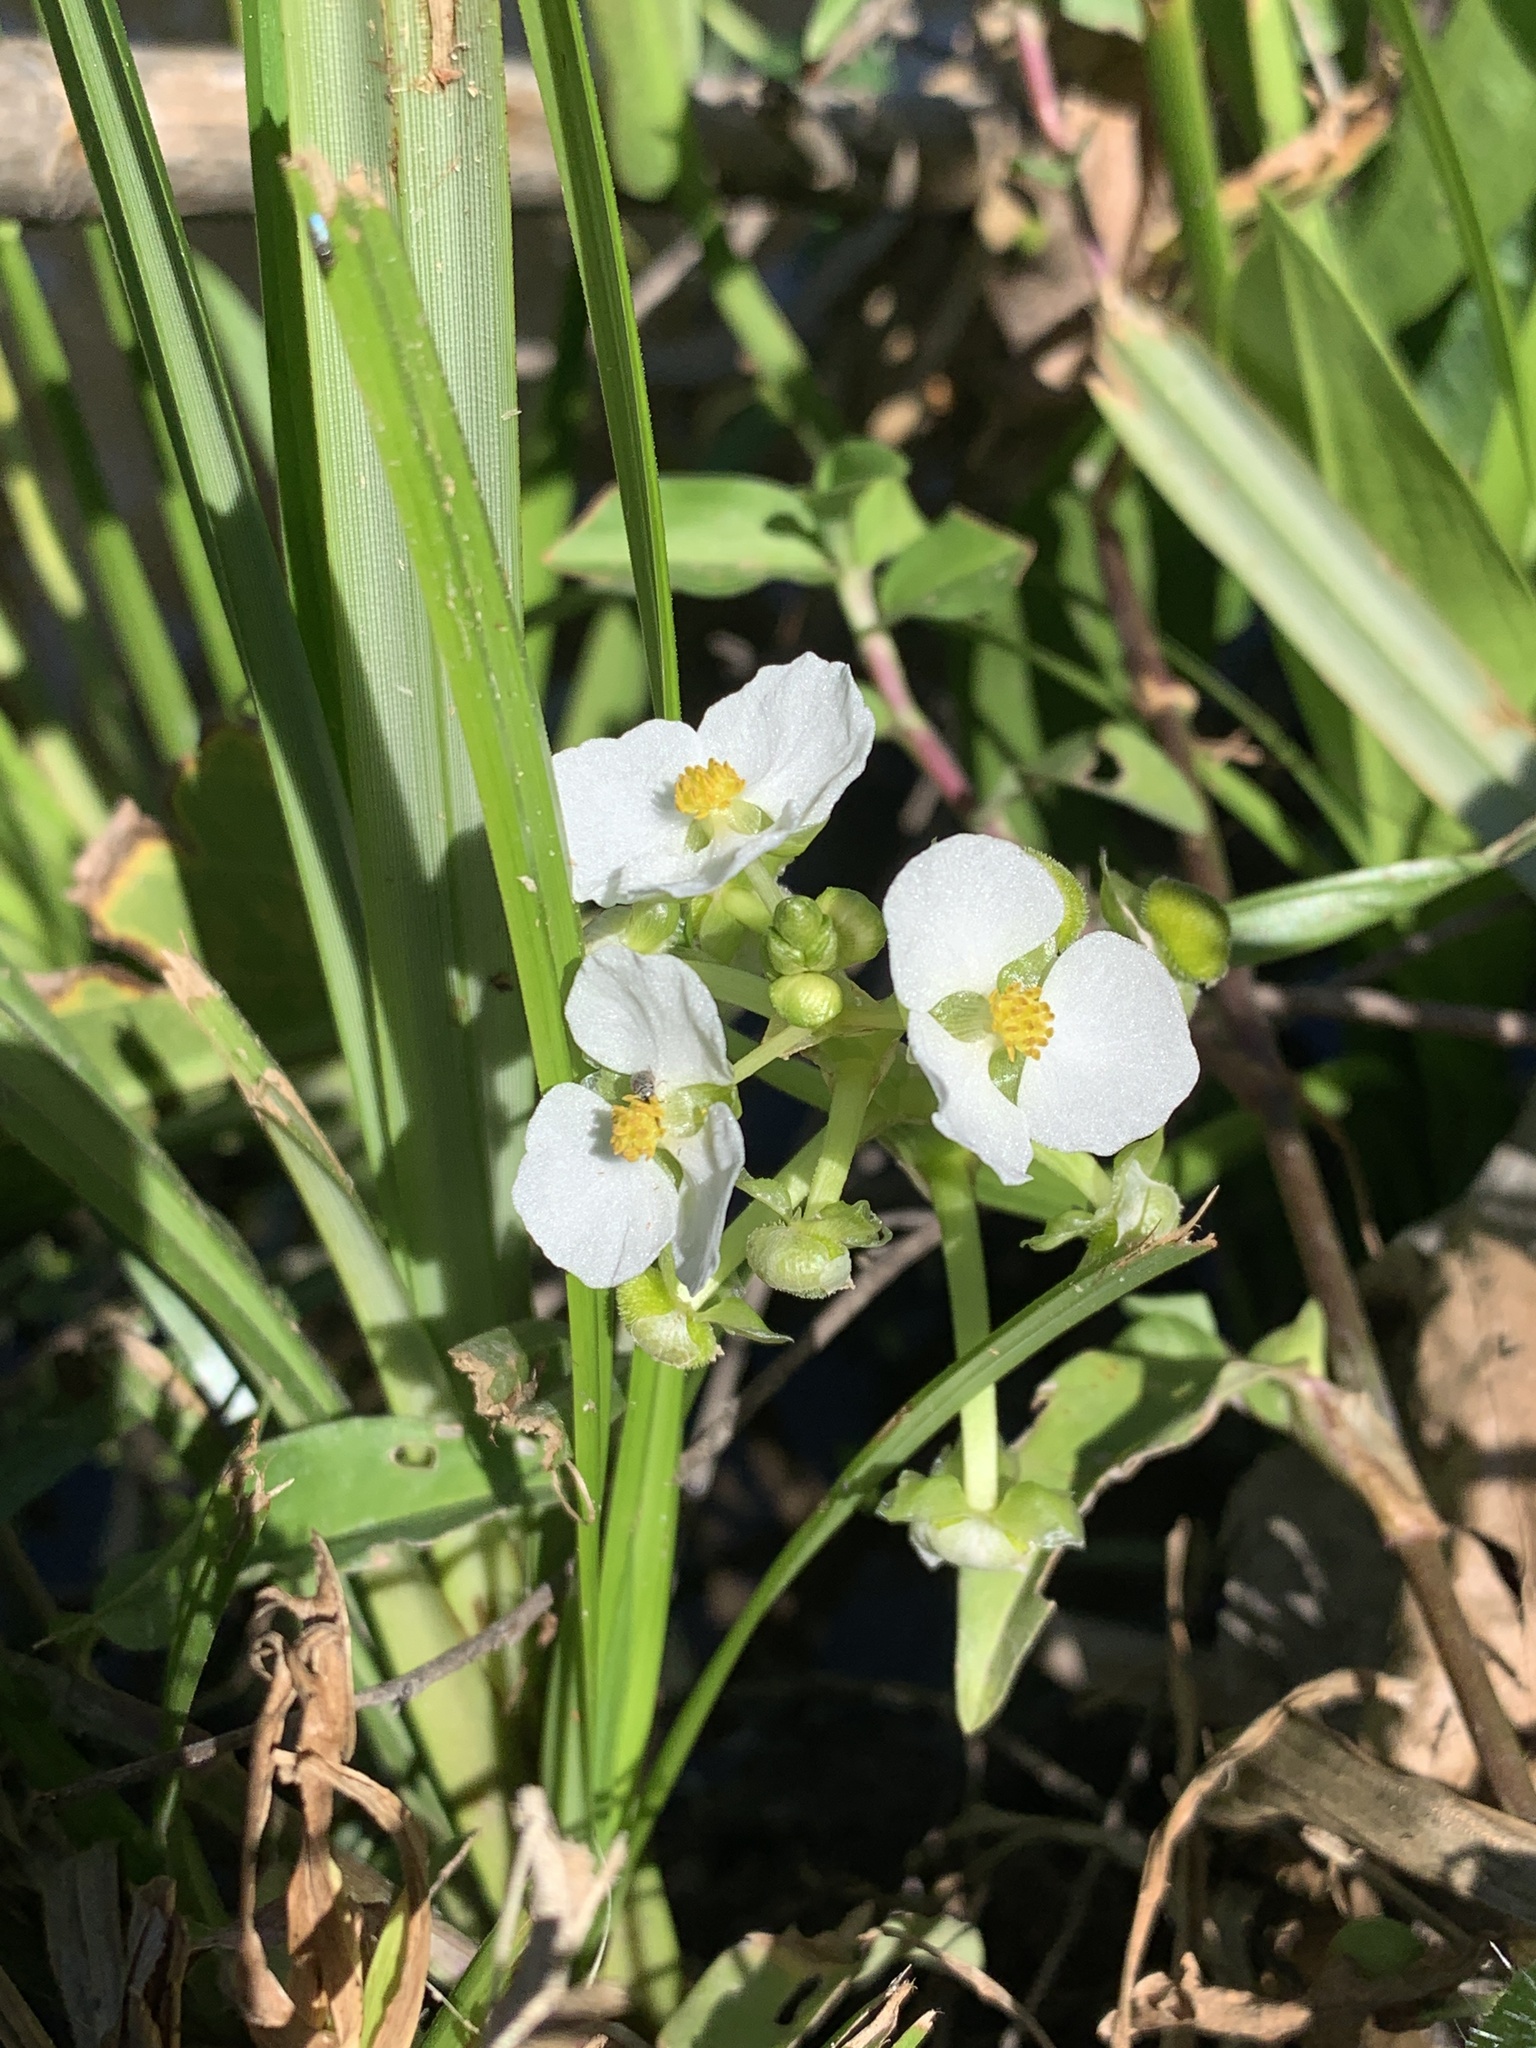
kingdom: Plantae
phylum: Tracheophyta
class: Liliopsida
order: Alismatales
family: Alismataceae
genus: Sagittaria
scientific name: Sagittaria platyphylla
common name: Broad-leaf arrowhead
